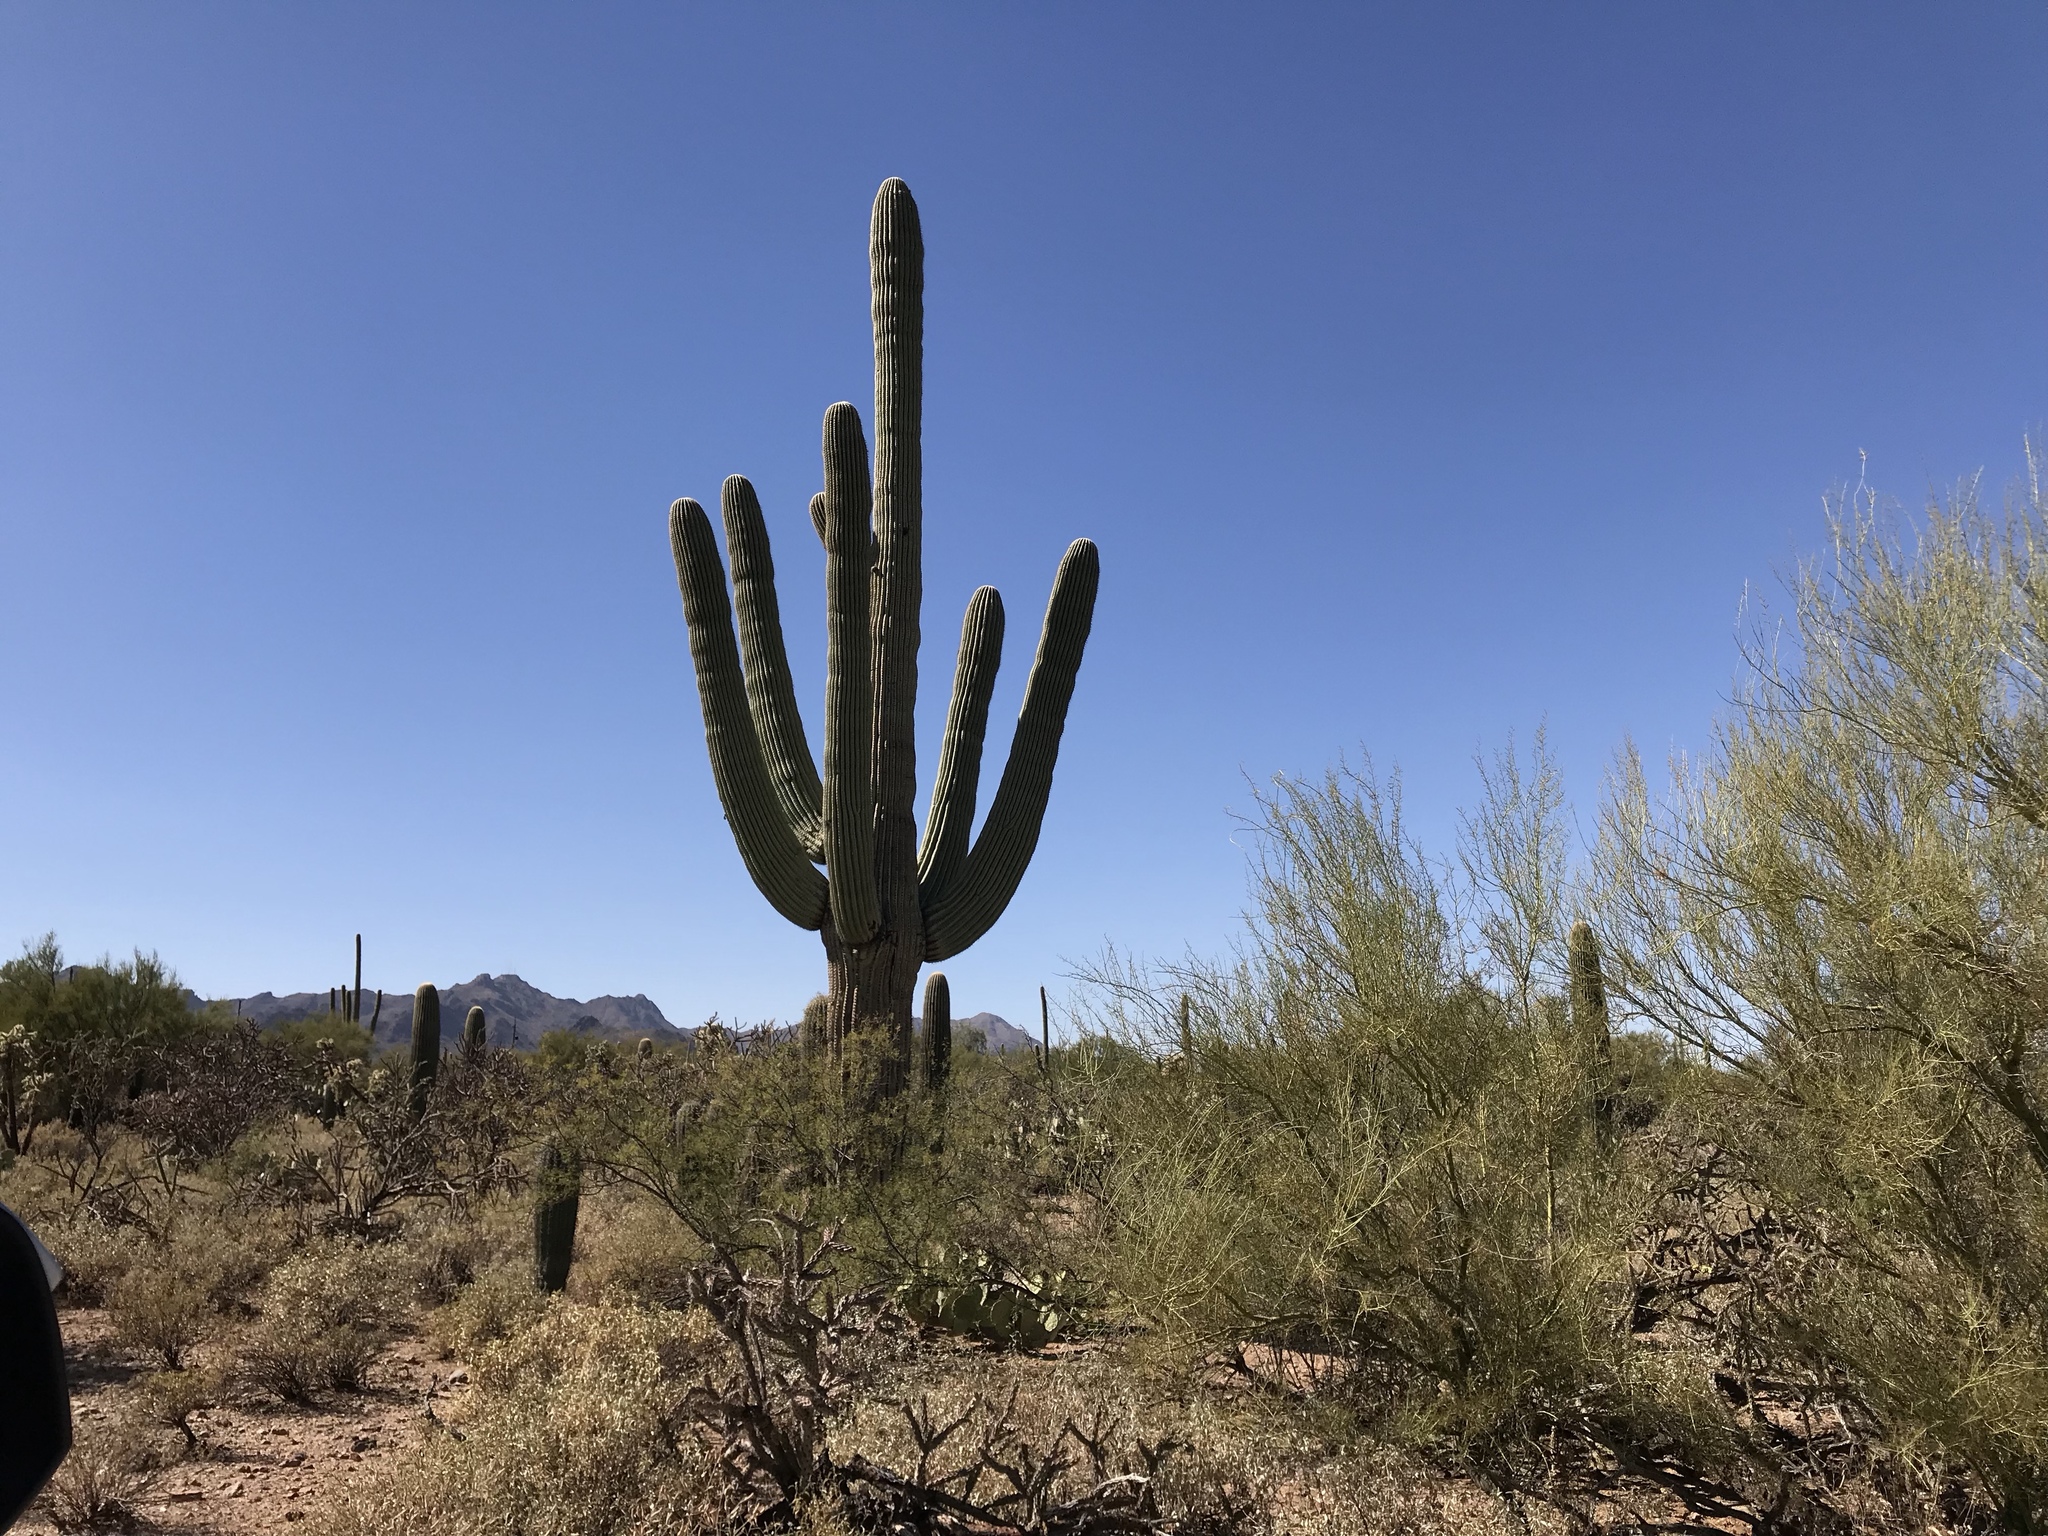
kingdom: Plantae
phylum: Tracheophyta
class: Magnoliopsida
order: Caryophyllales
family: Cactaceae
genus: Carnegiea
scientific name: Carnegiea gigantea
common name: Saguaro
